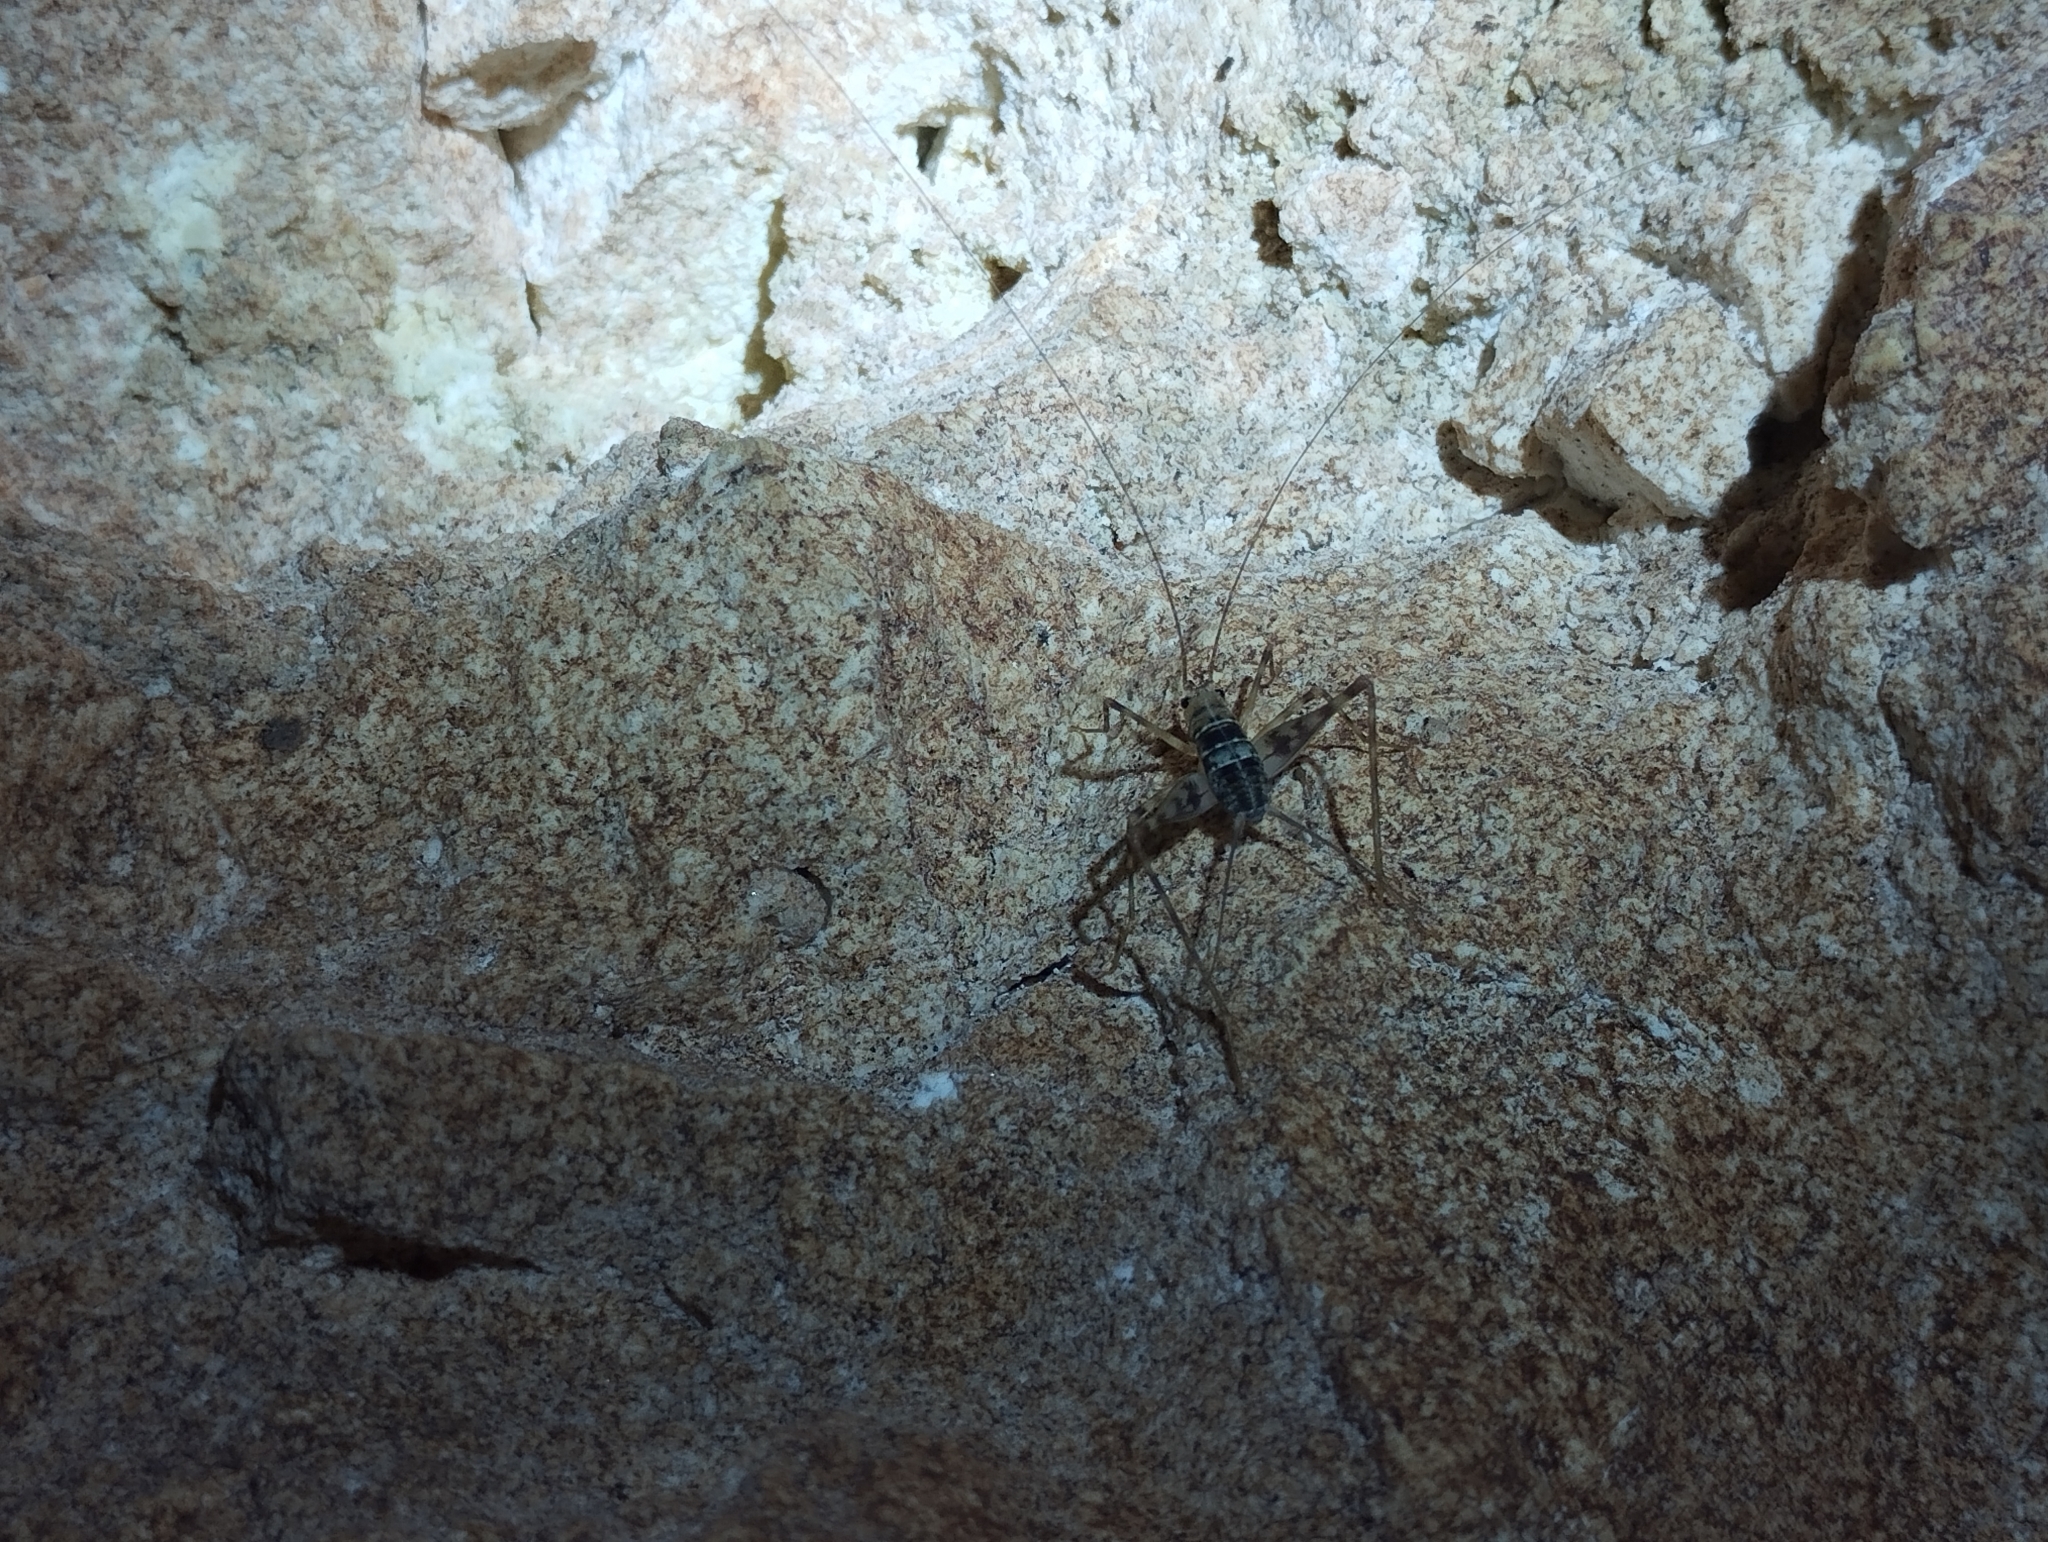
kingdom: Animalia
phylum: Arthropoda
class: Insecta
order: Orthoptera
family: Phalangopsidae
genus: Mayagryllus
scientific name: Mayagryllus yucatanus
